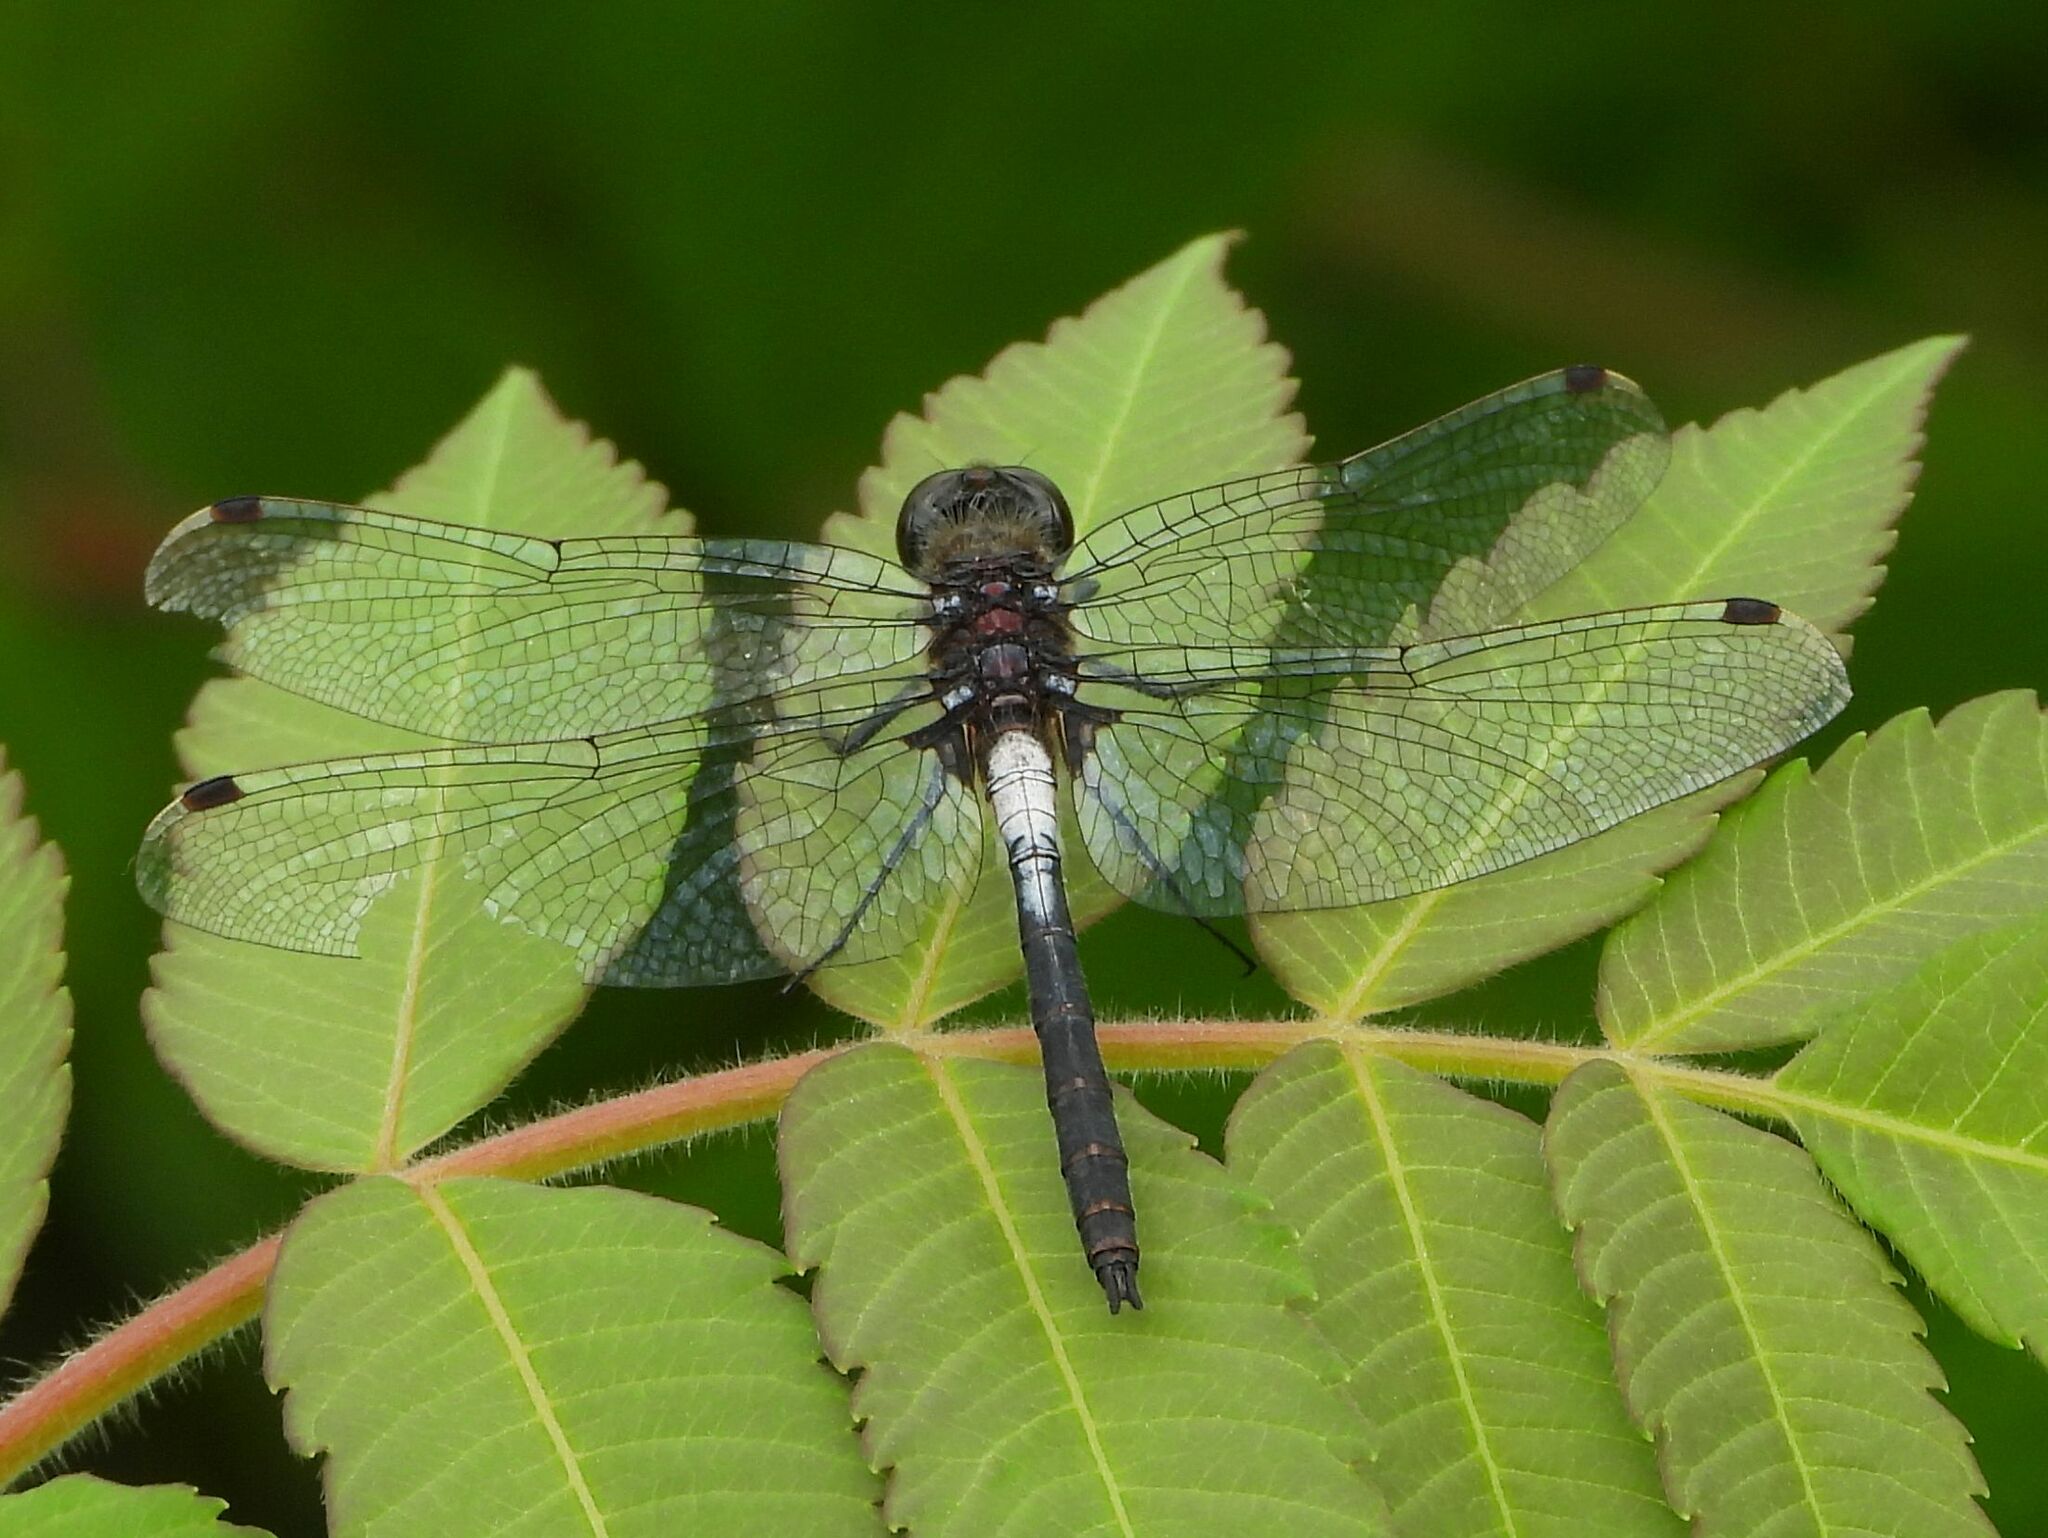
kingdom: Animalia
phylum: Arthropoda
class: Insecta
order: Odonata
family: Libellulidae
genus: Leucorrhinia
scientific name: Leucorrhinia proxima
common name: Belted whiteface
